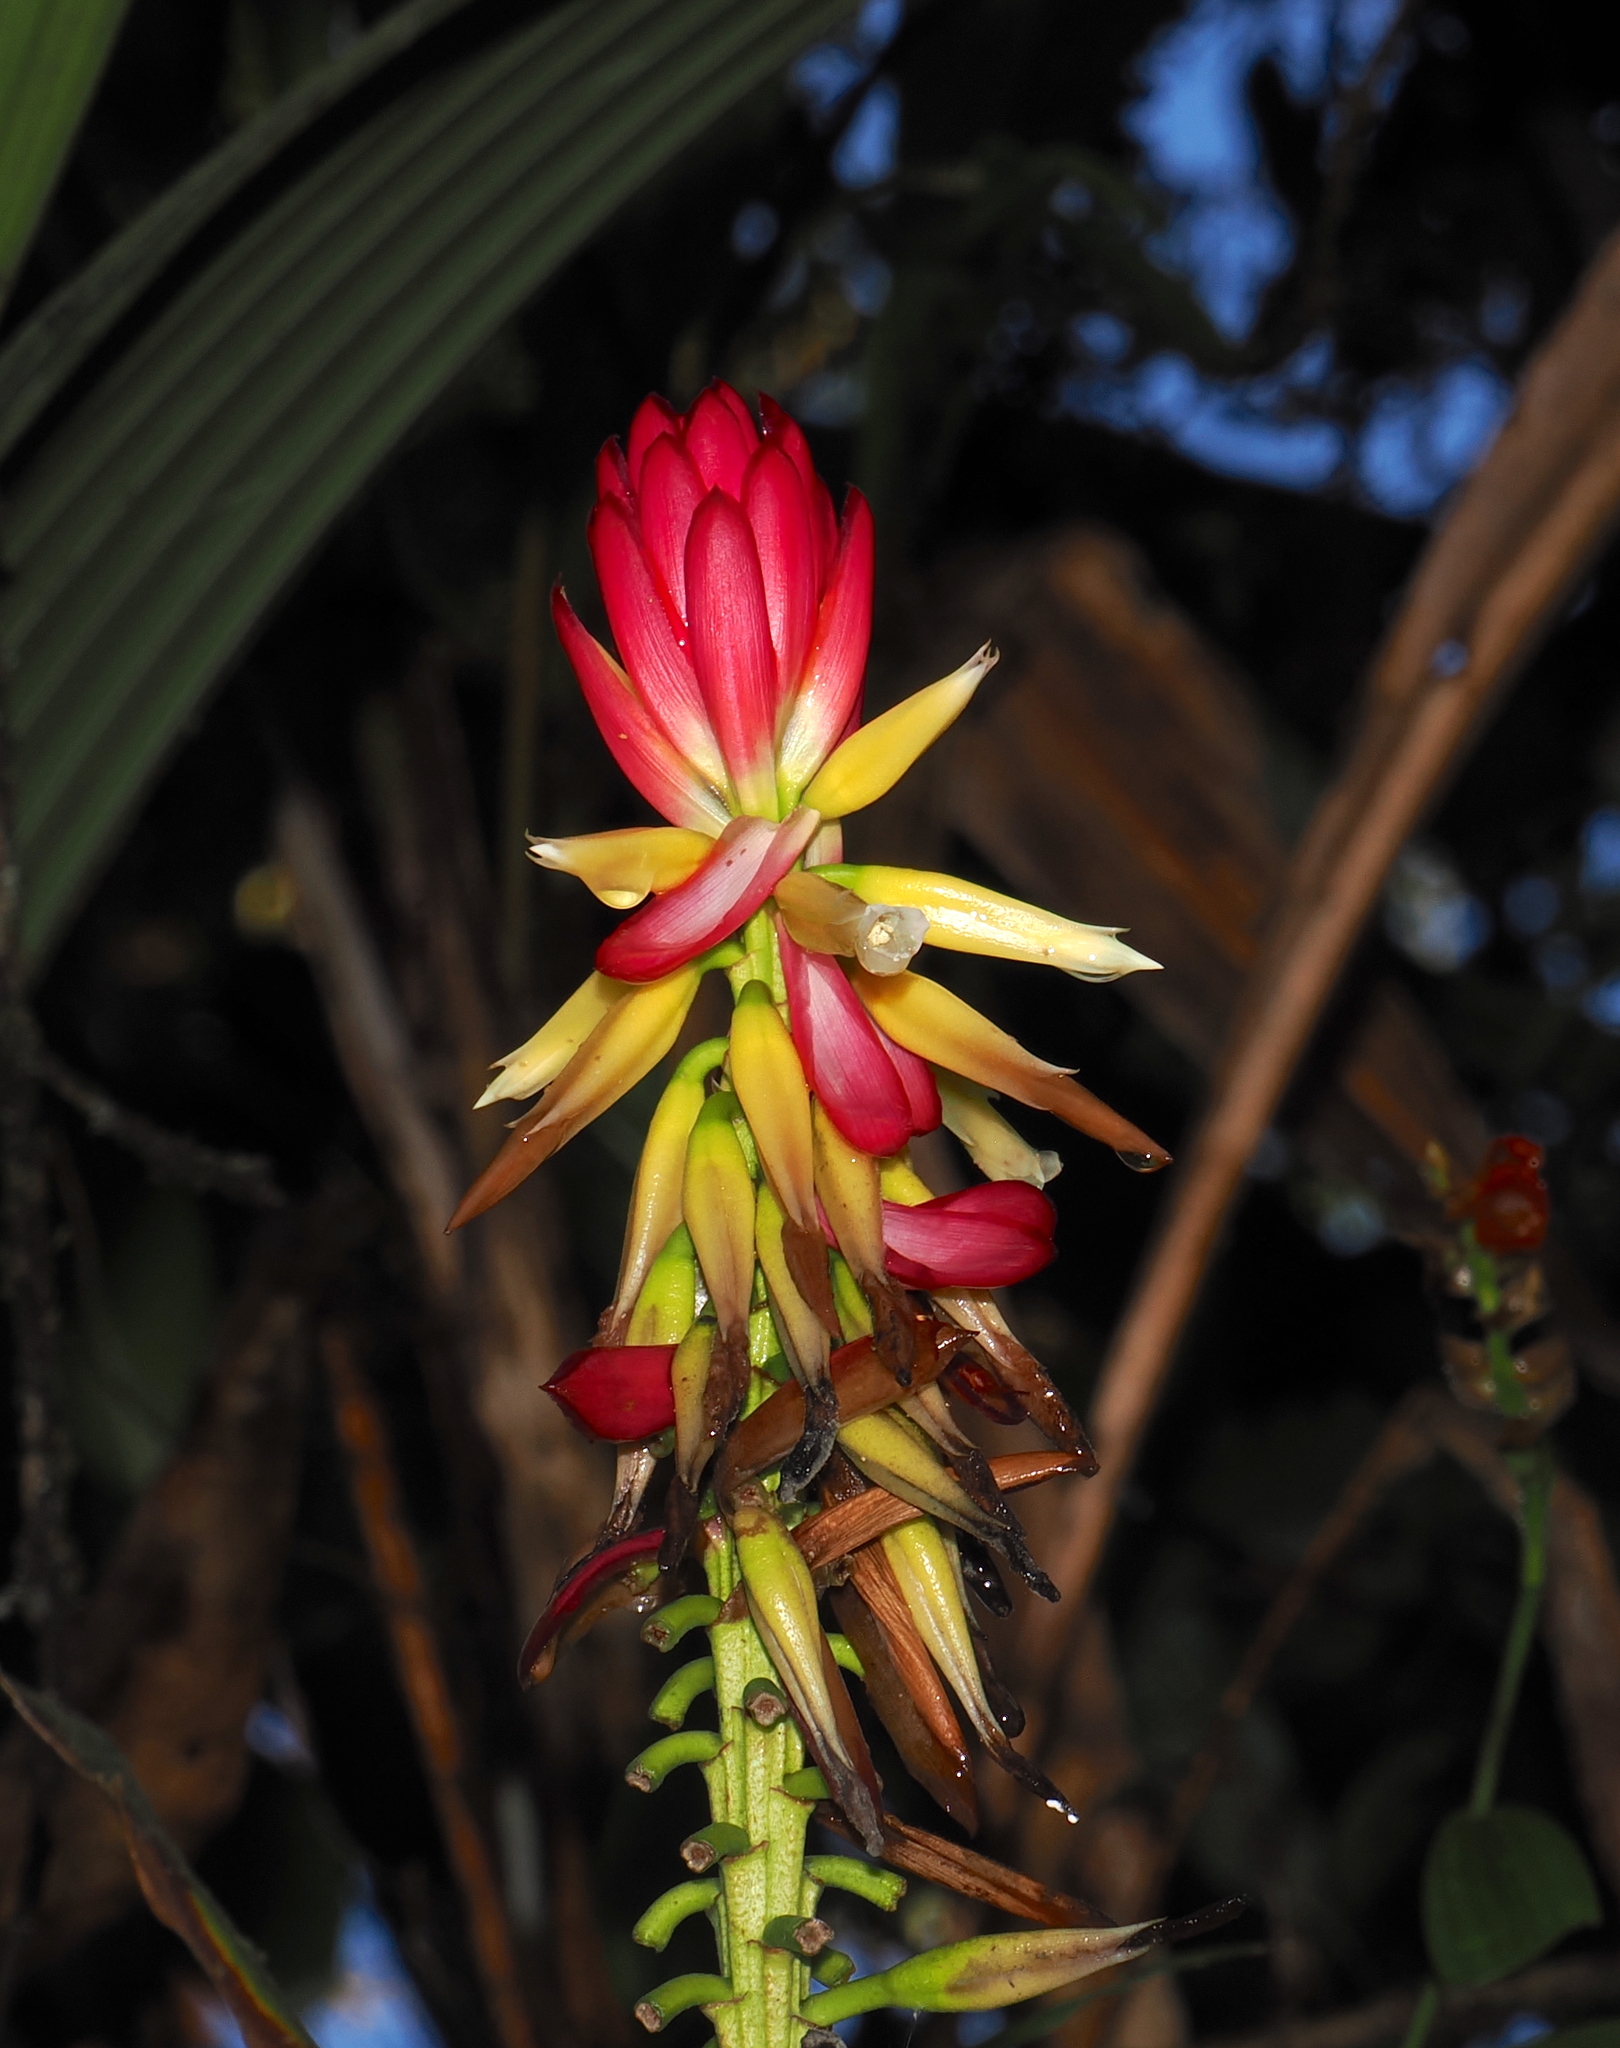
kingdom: Plantae
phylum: Tracheophyta
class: Liliopsida
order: Poales
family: Bromeliaceae
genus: Pitcairnia
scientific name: Pitcairnia kniphofioides
